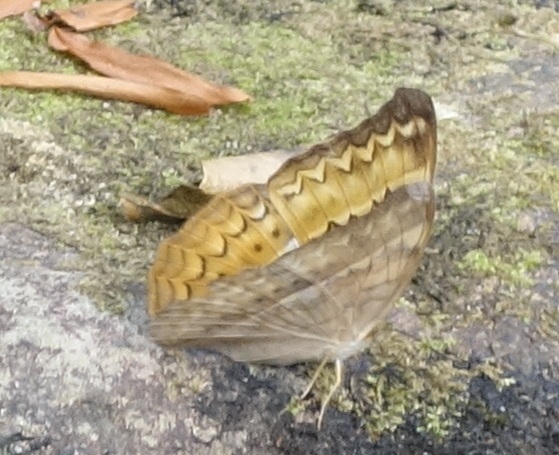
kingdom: Animalia
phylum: Arthropoda
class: Insecta
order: Lepidoptera
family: Nymphalidae
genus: Cirrochroa
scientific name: Cirrochroa aoris
